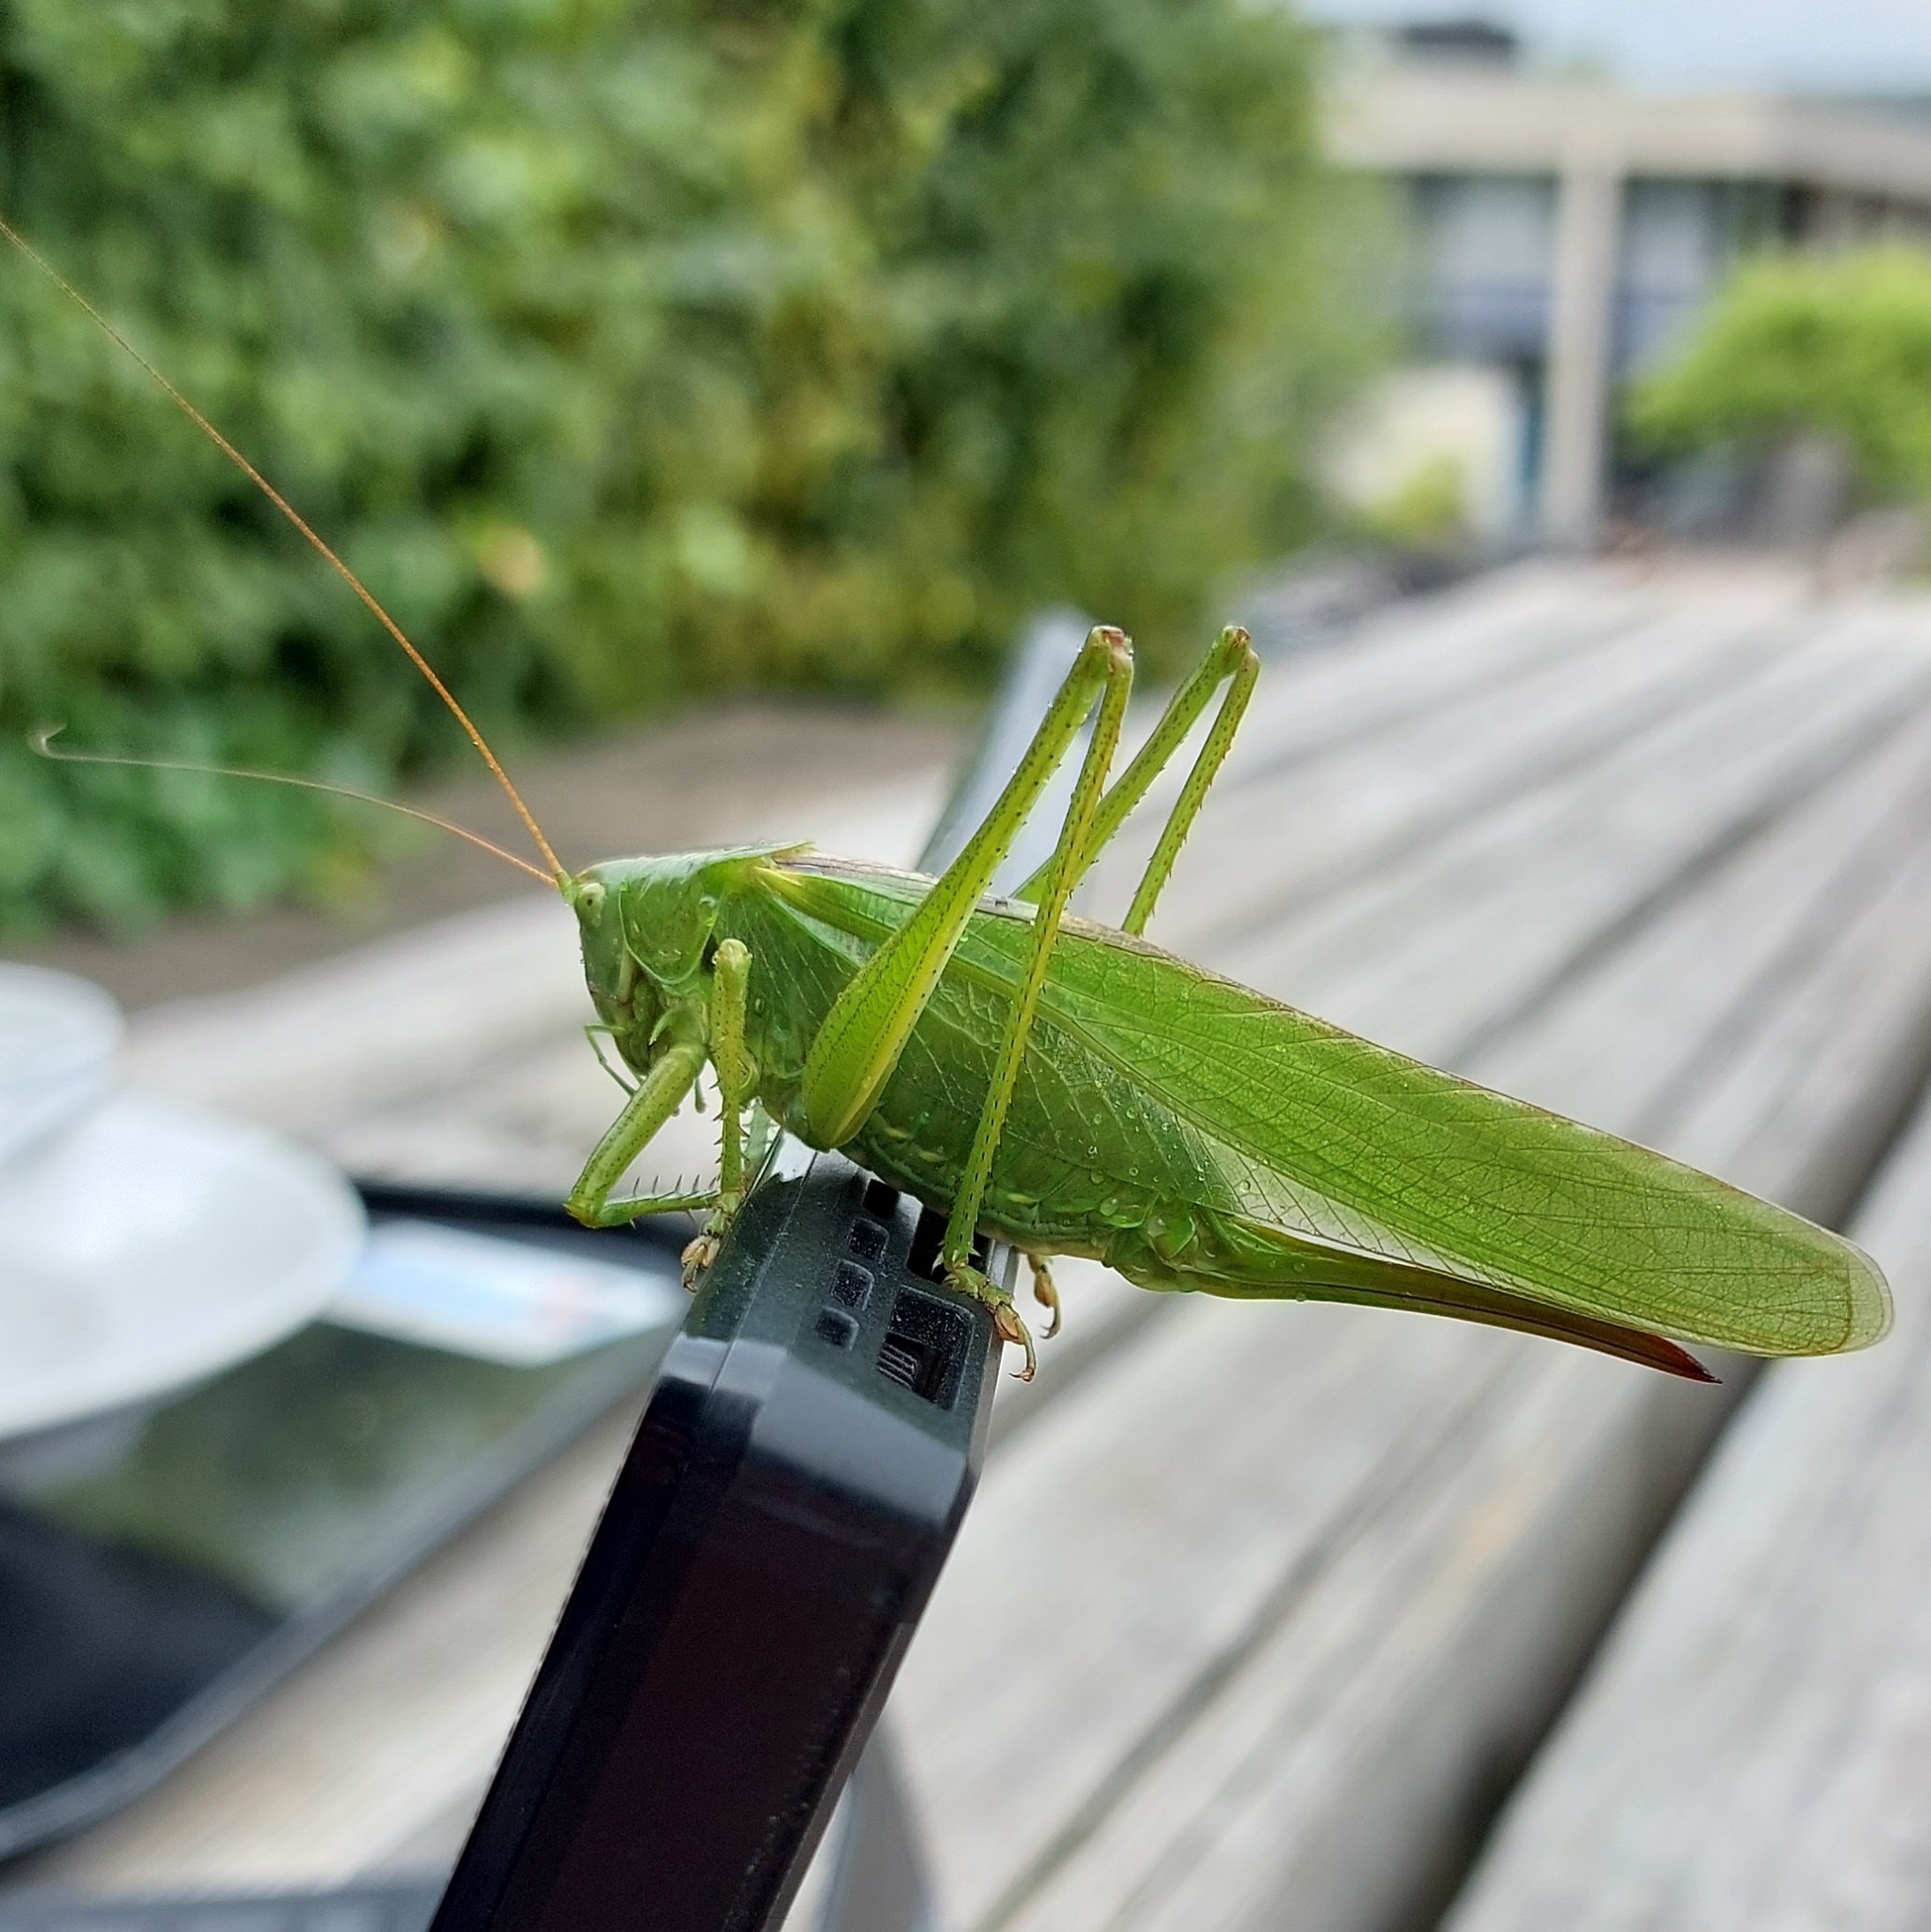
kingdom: Animalia
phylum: Arthropoda
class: Insecta
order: Orthoptera
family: Tettigoniidae
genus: Tettigonia
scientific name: Tettigonia viridissima
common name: Great green bush-cricket
